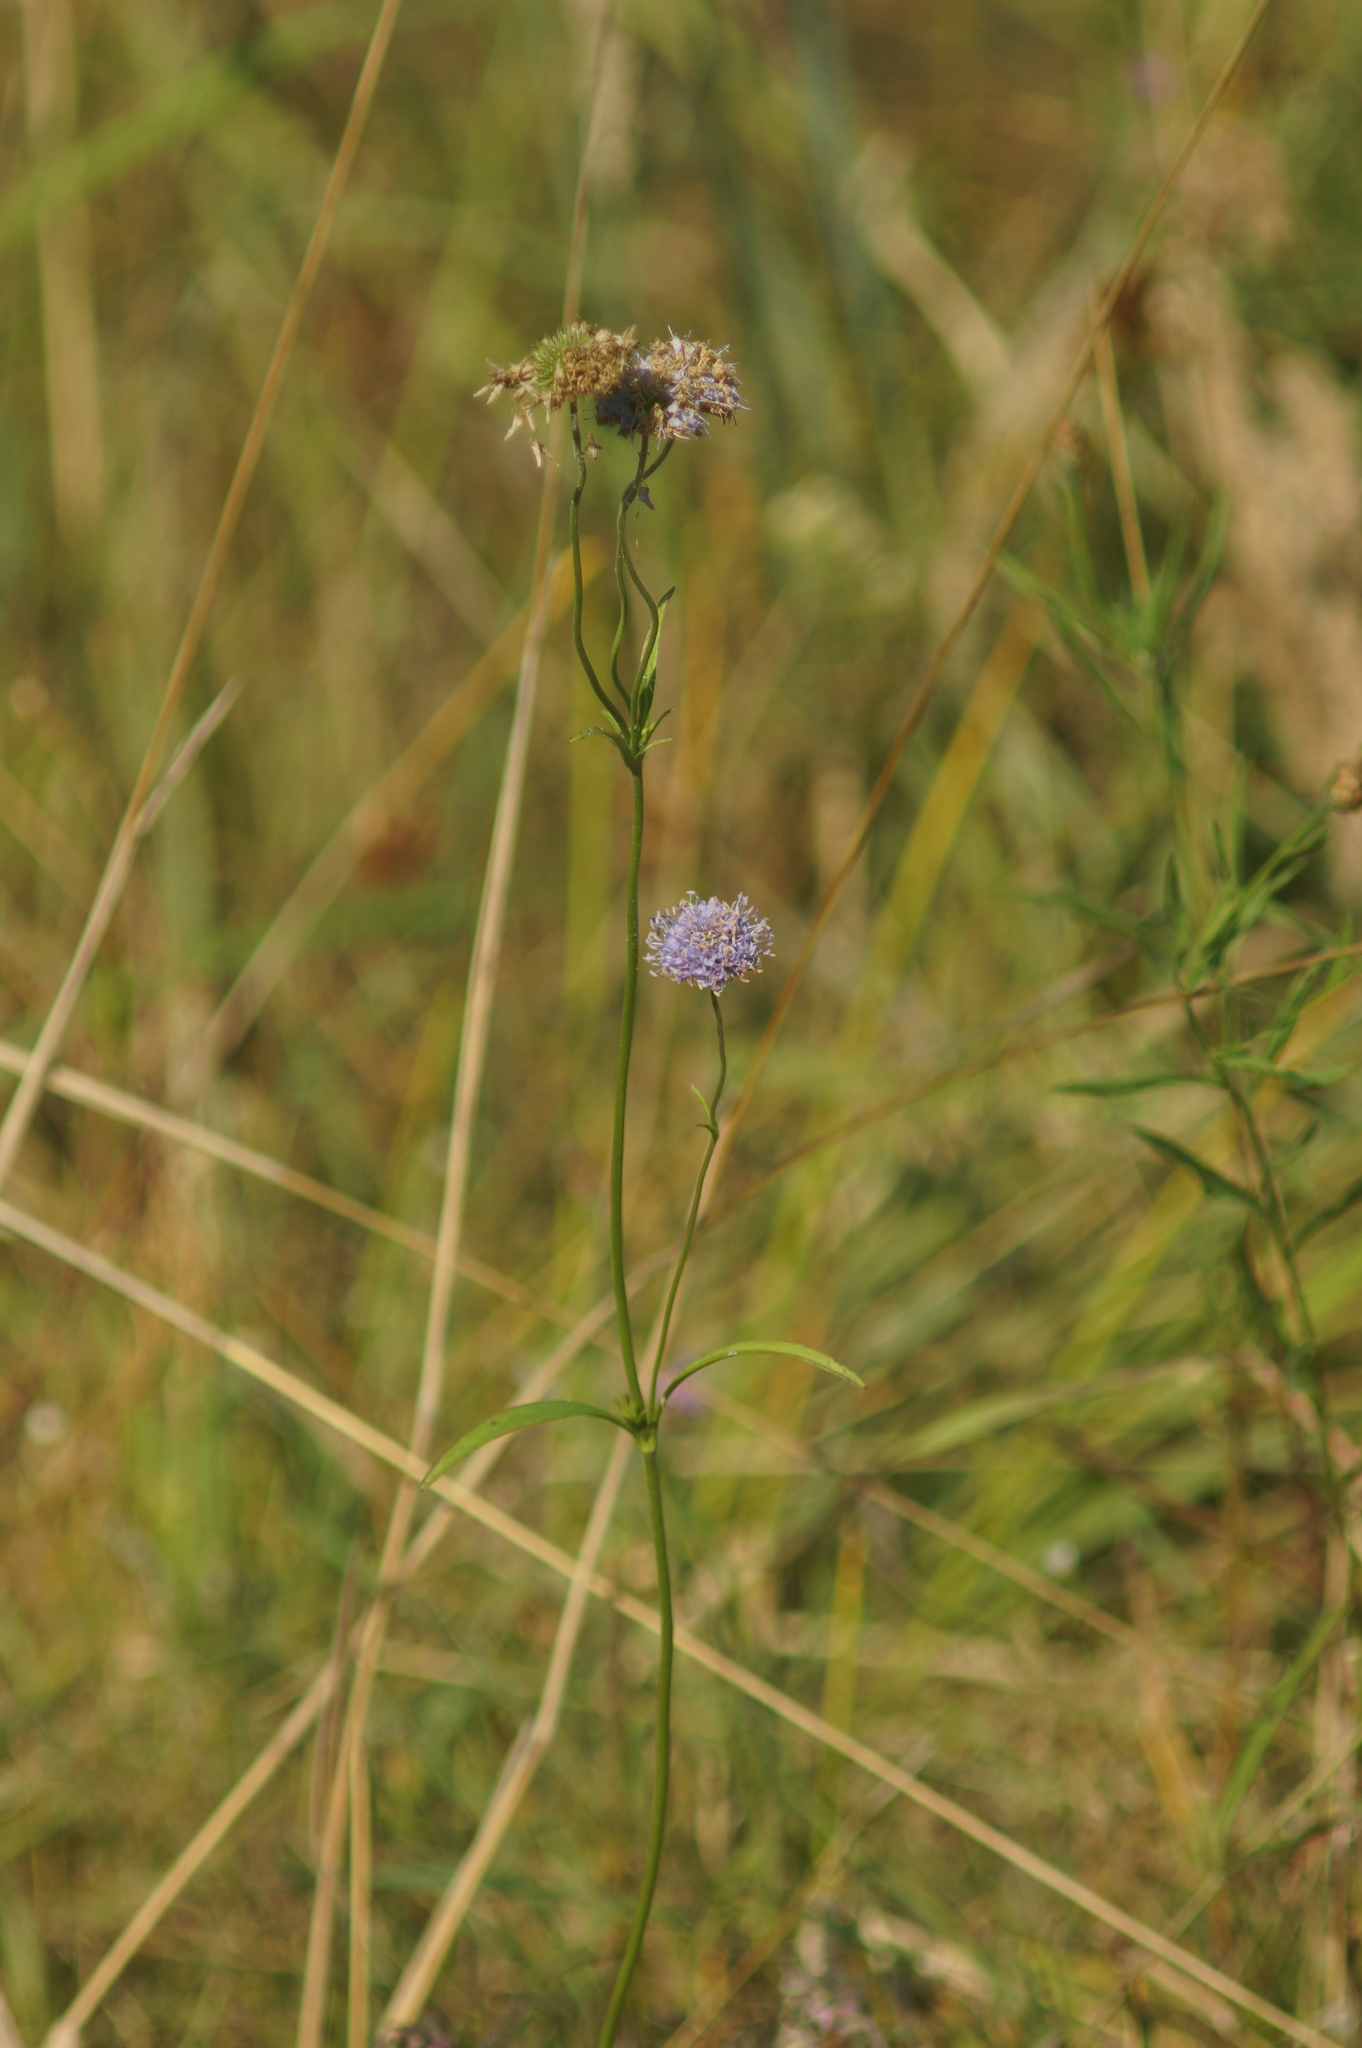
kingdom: Plantae
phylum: Tracheophyta
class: Magnoliopsida
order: Dipsacales
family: Caprifoliaceae
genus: Succisa
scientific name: Succisa pratensis
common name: Devil's-bit
